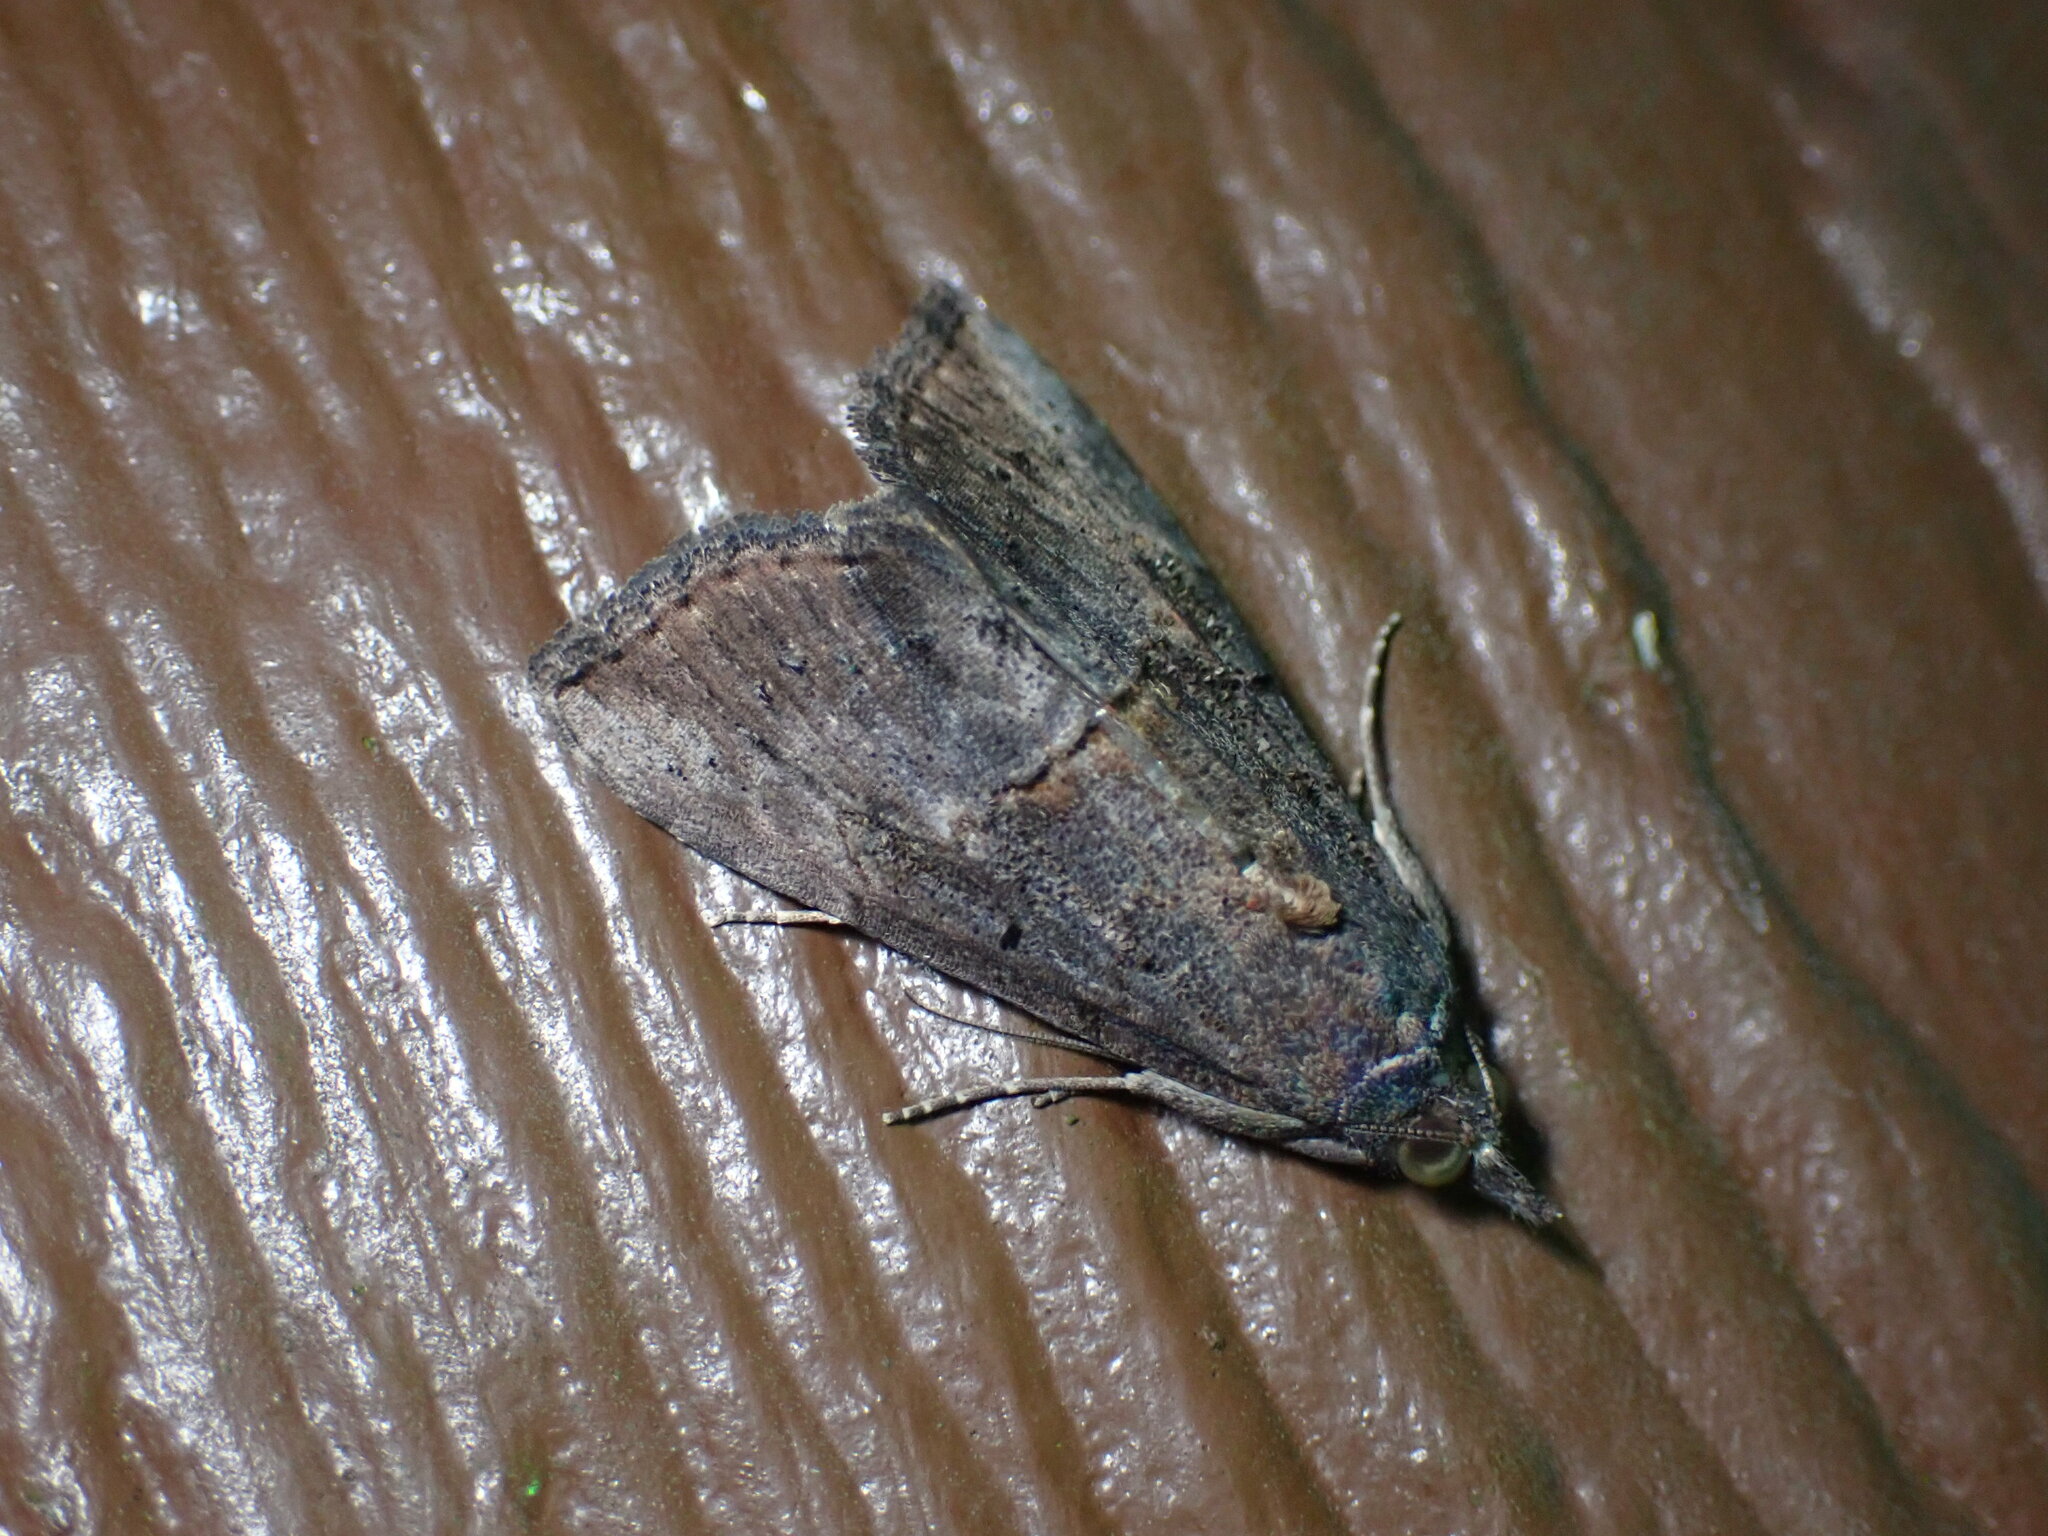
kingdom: Animalia
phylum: Arthropoda
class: Insecta
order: Lepidoptera
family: Erebidae
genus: Hypena
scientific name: Hypena scabra
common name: Green cloverworm
